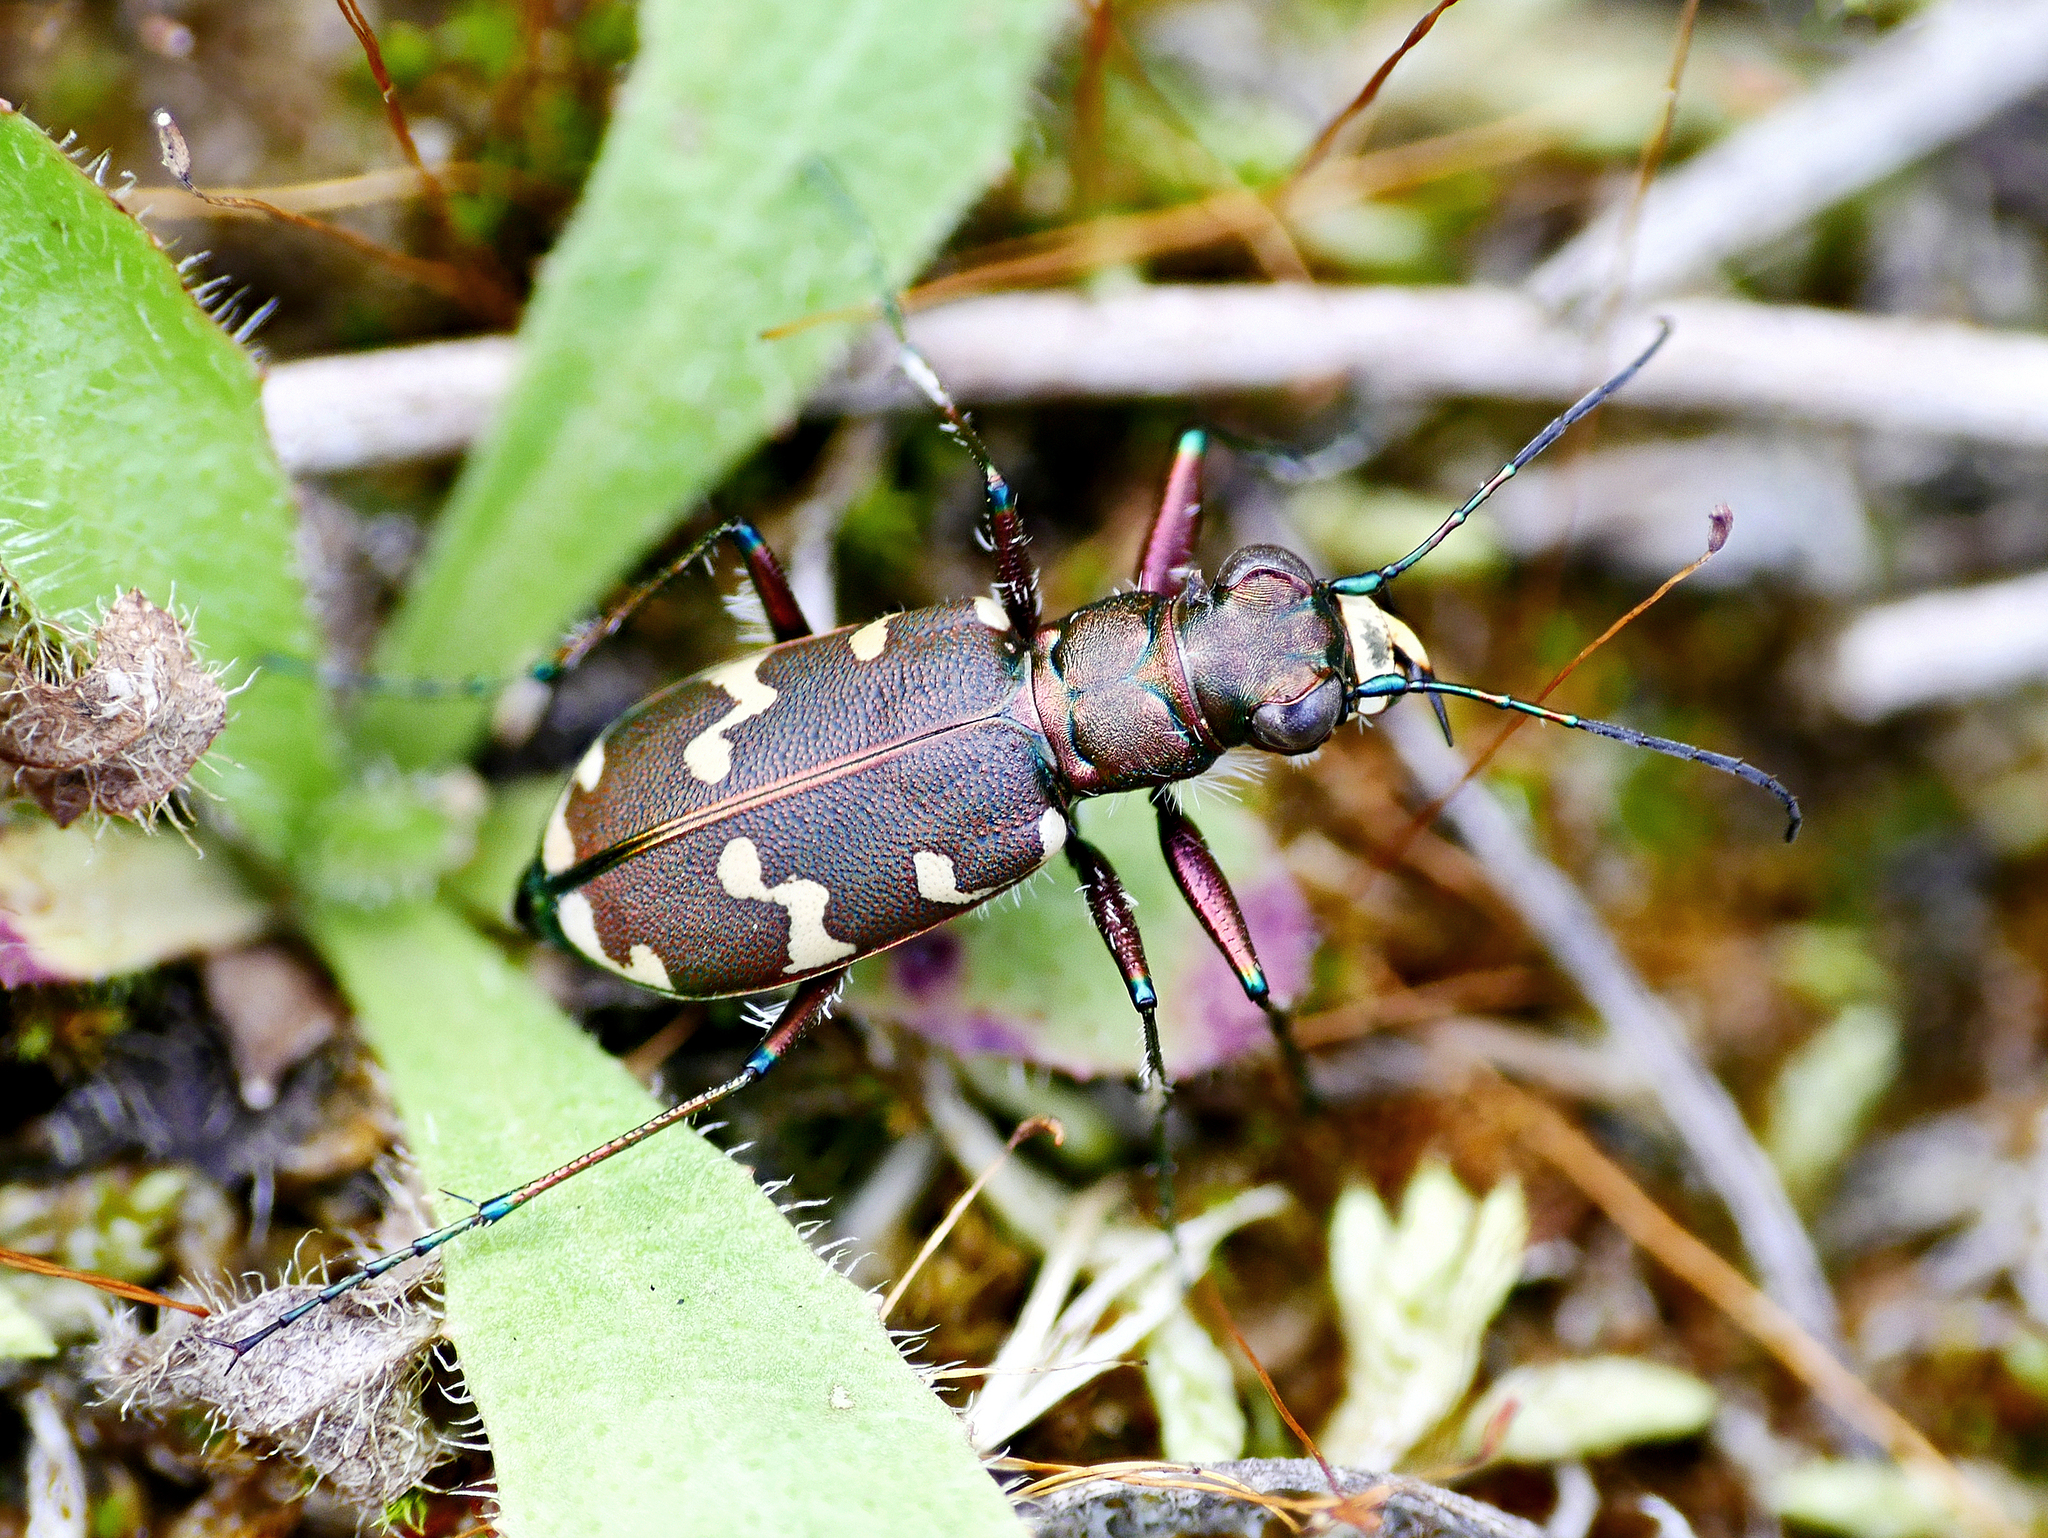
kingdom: Animalia
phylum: Arthropoda
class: Insecta
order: Coleoptera
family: Carabidae
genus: Cicindela
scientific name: Cicindela hybrida
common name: Northern dune tiger beetle
